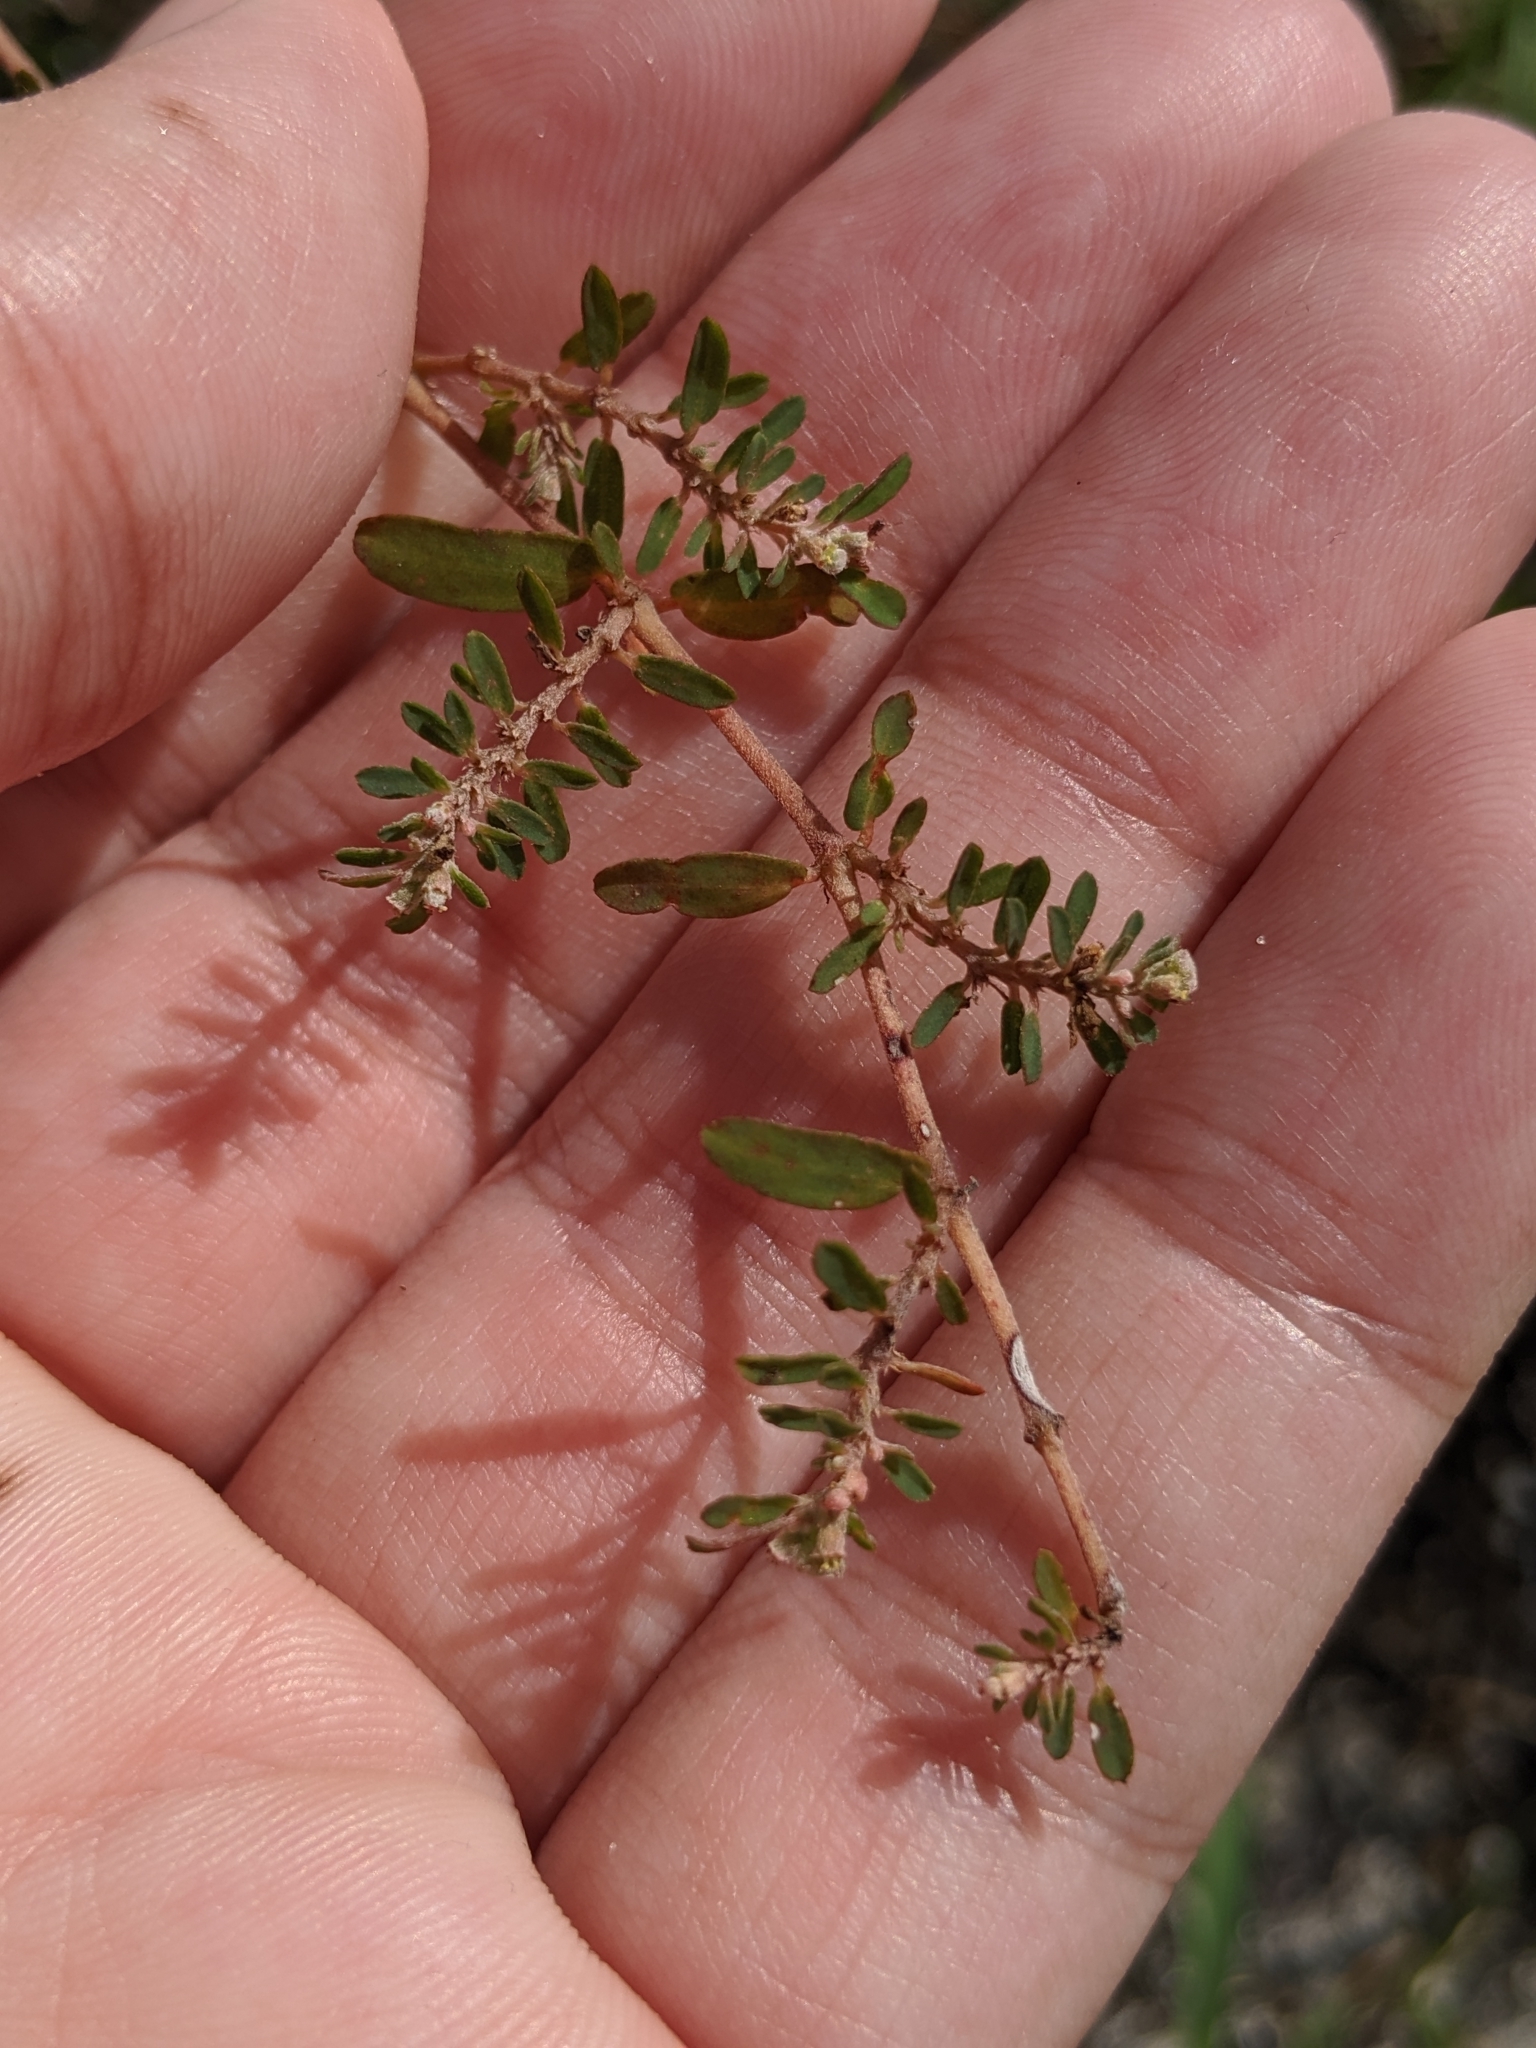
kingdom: Plantae
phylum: Tracheophyta
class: Magnoliopsida
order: Malpighiales
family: Euphorbiaceae
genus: Euphorbia
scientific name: Euphorbia maculata
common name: Spotted spurge
